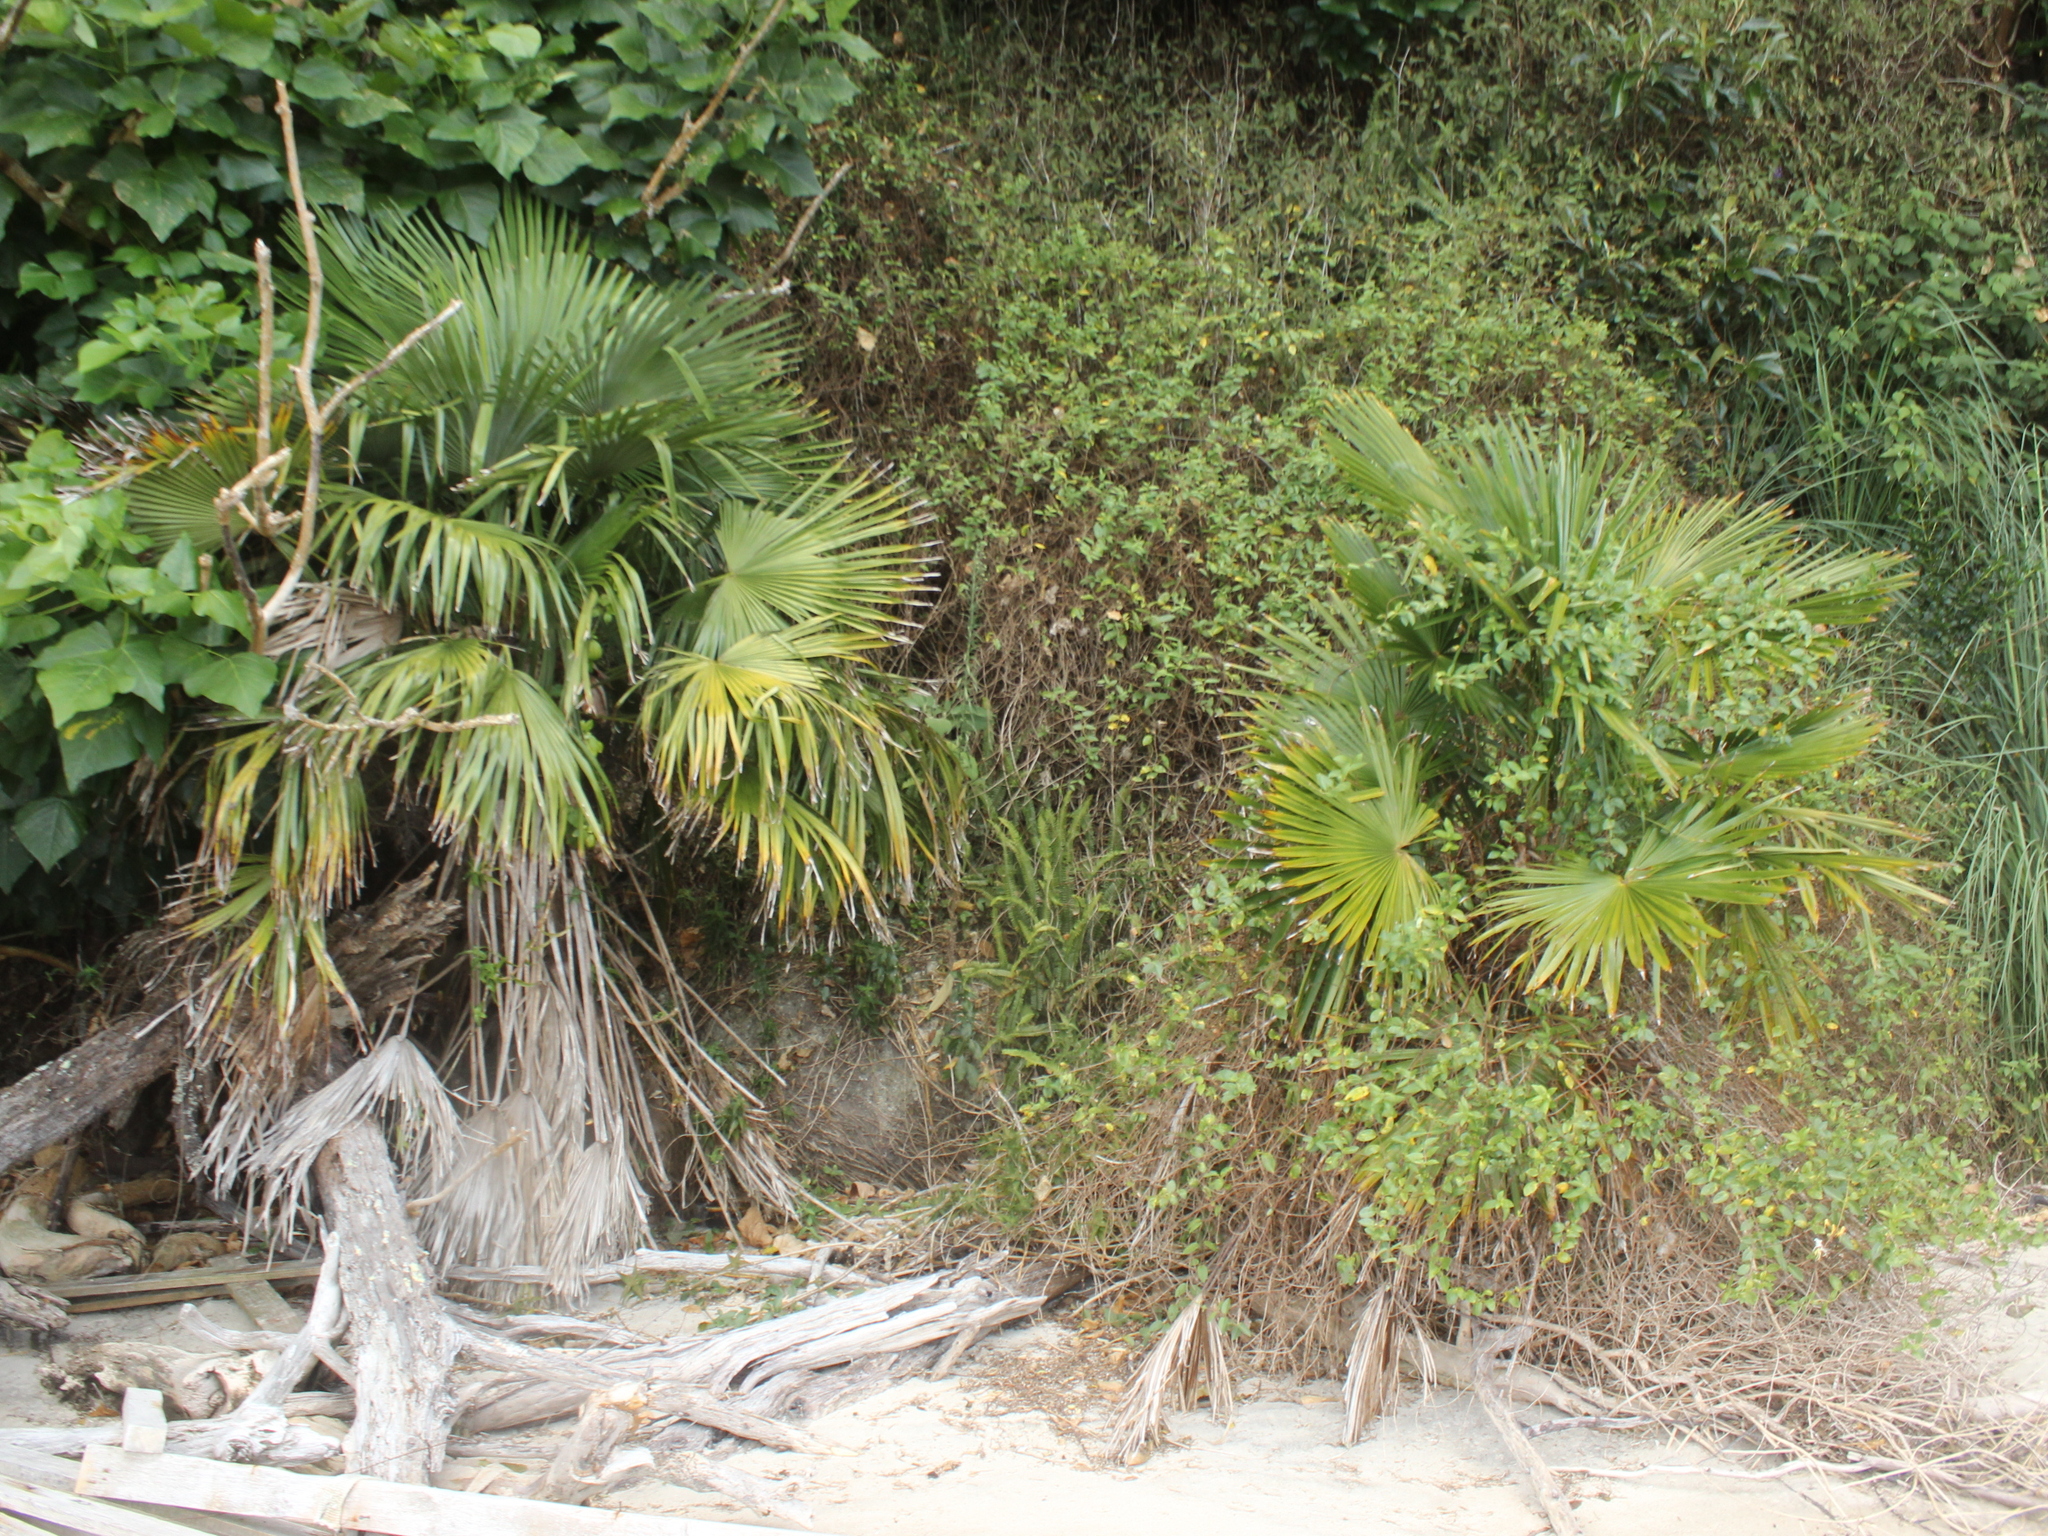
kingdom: Plantae
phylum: Tracheophyta
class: Liliopsida
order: Arecales
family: Arecaceae
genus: Trachycarpus
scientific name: Trachycarpus fortunei
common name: Chusan palm
